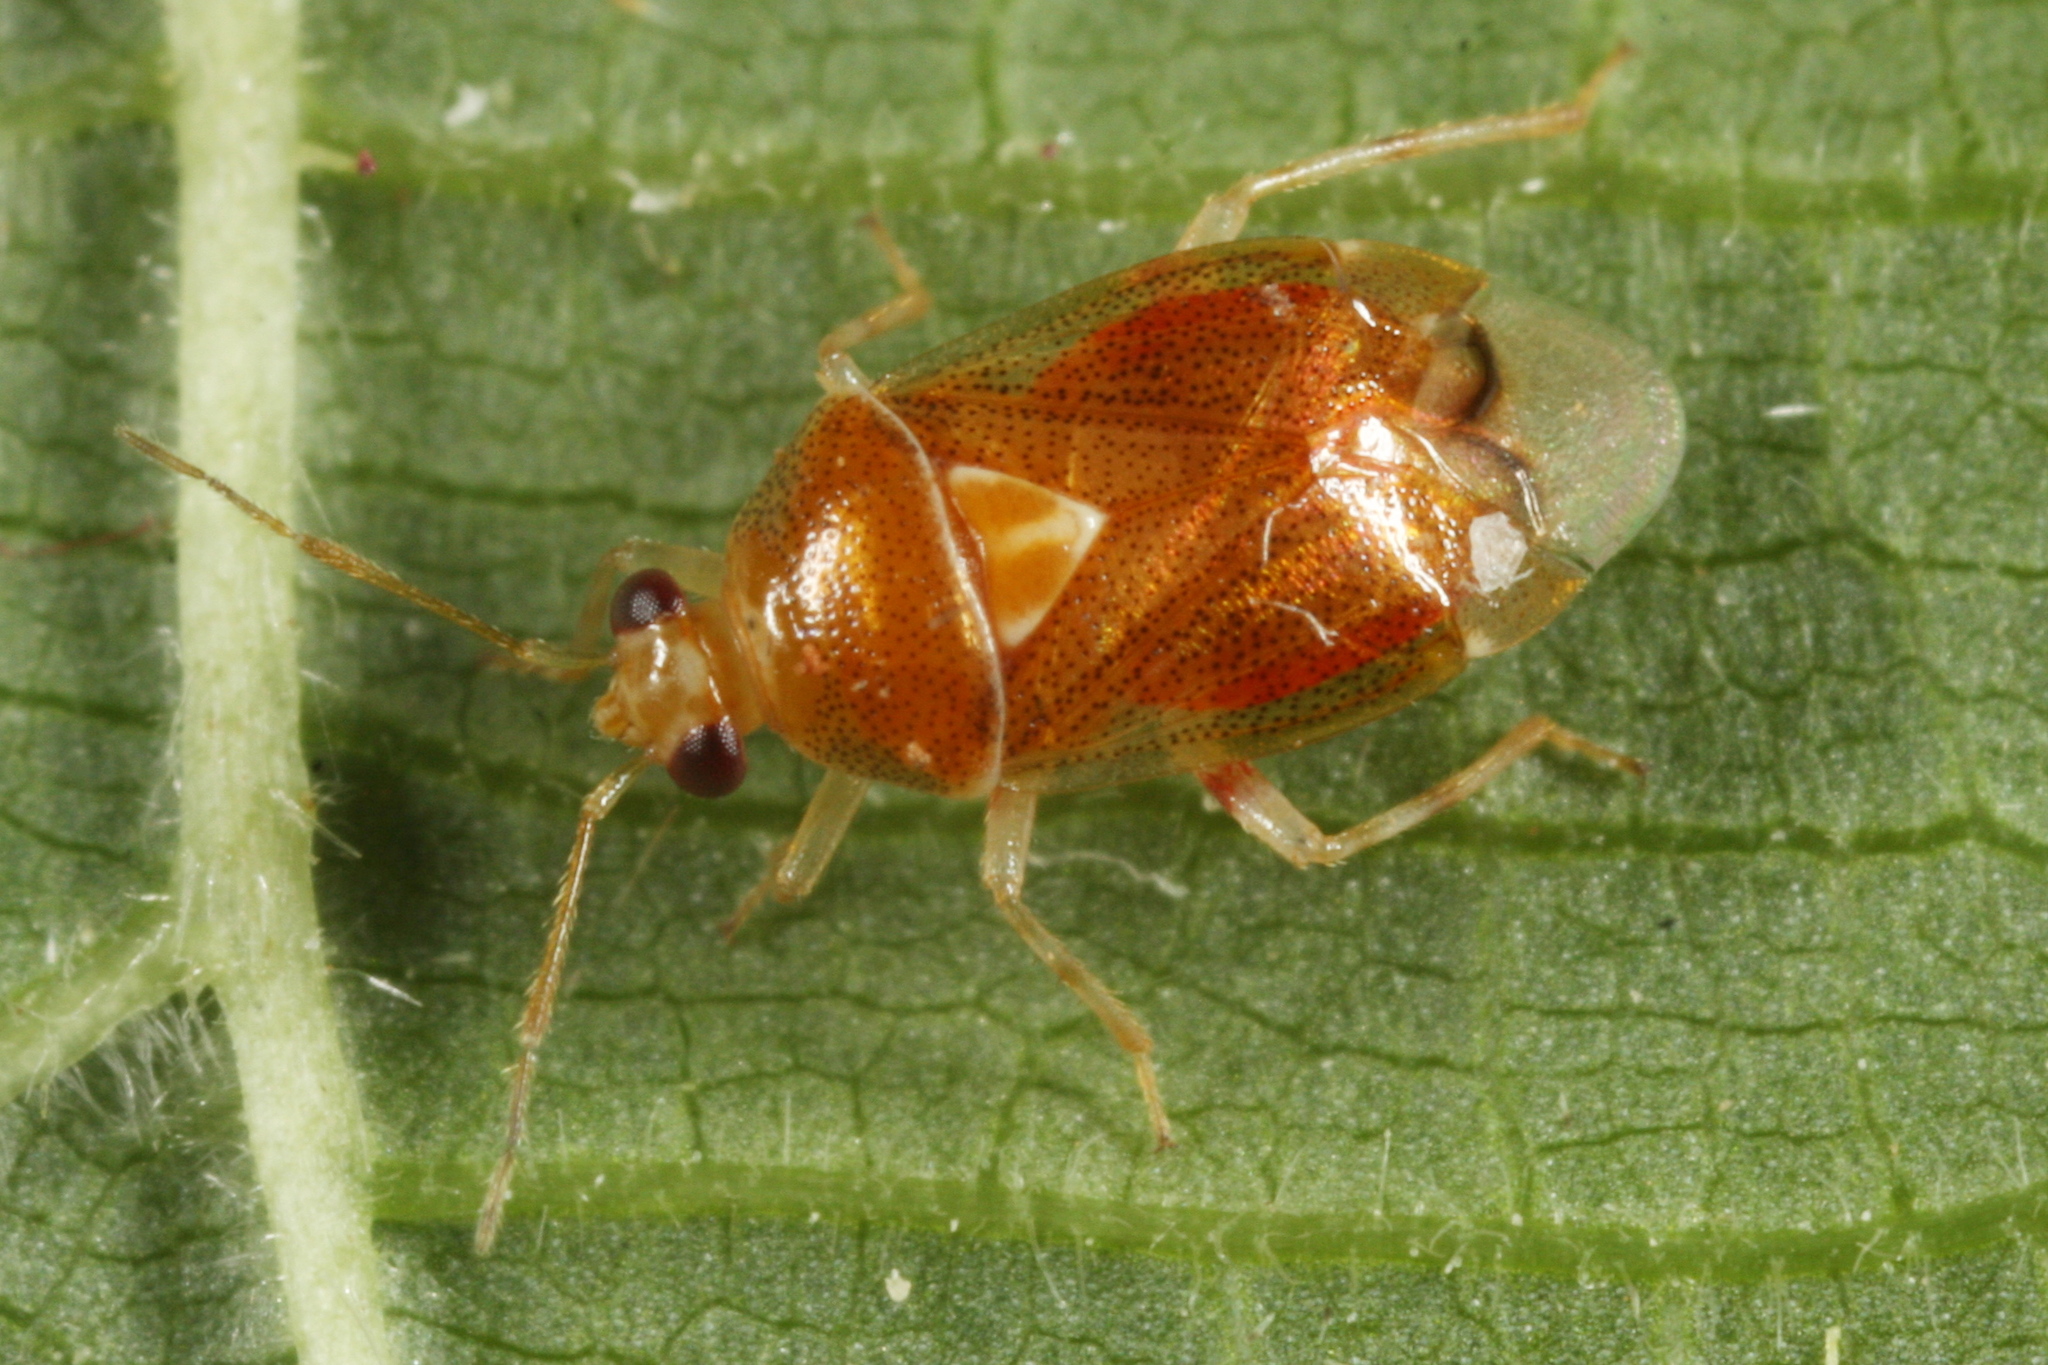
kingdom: Animalia
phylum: Arthropoda
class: Insecta
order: Hemiptera
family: Miridae
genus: Deraeocoris
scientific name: Deraeocoris lutescens
